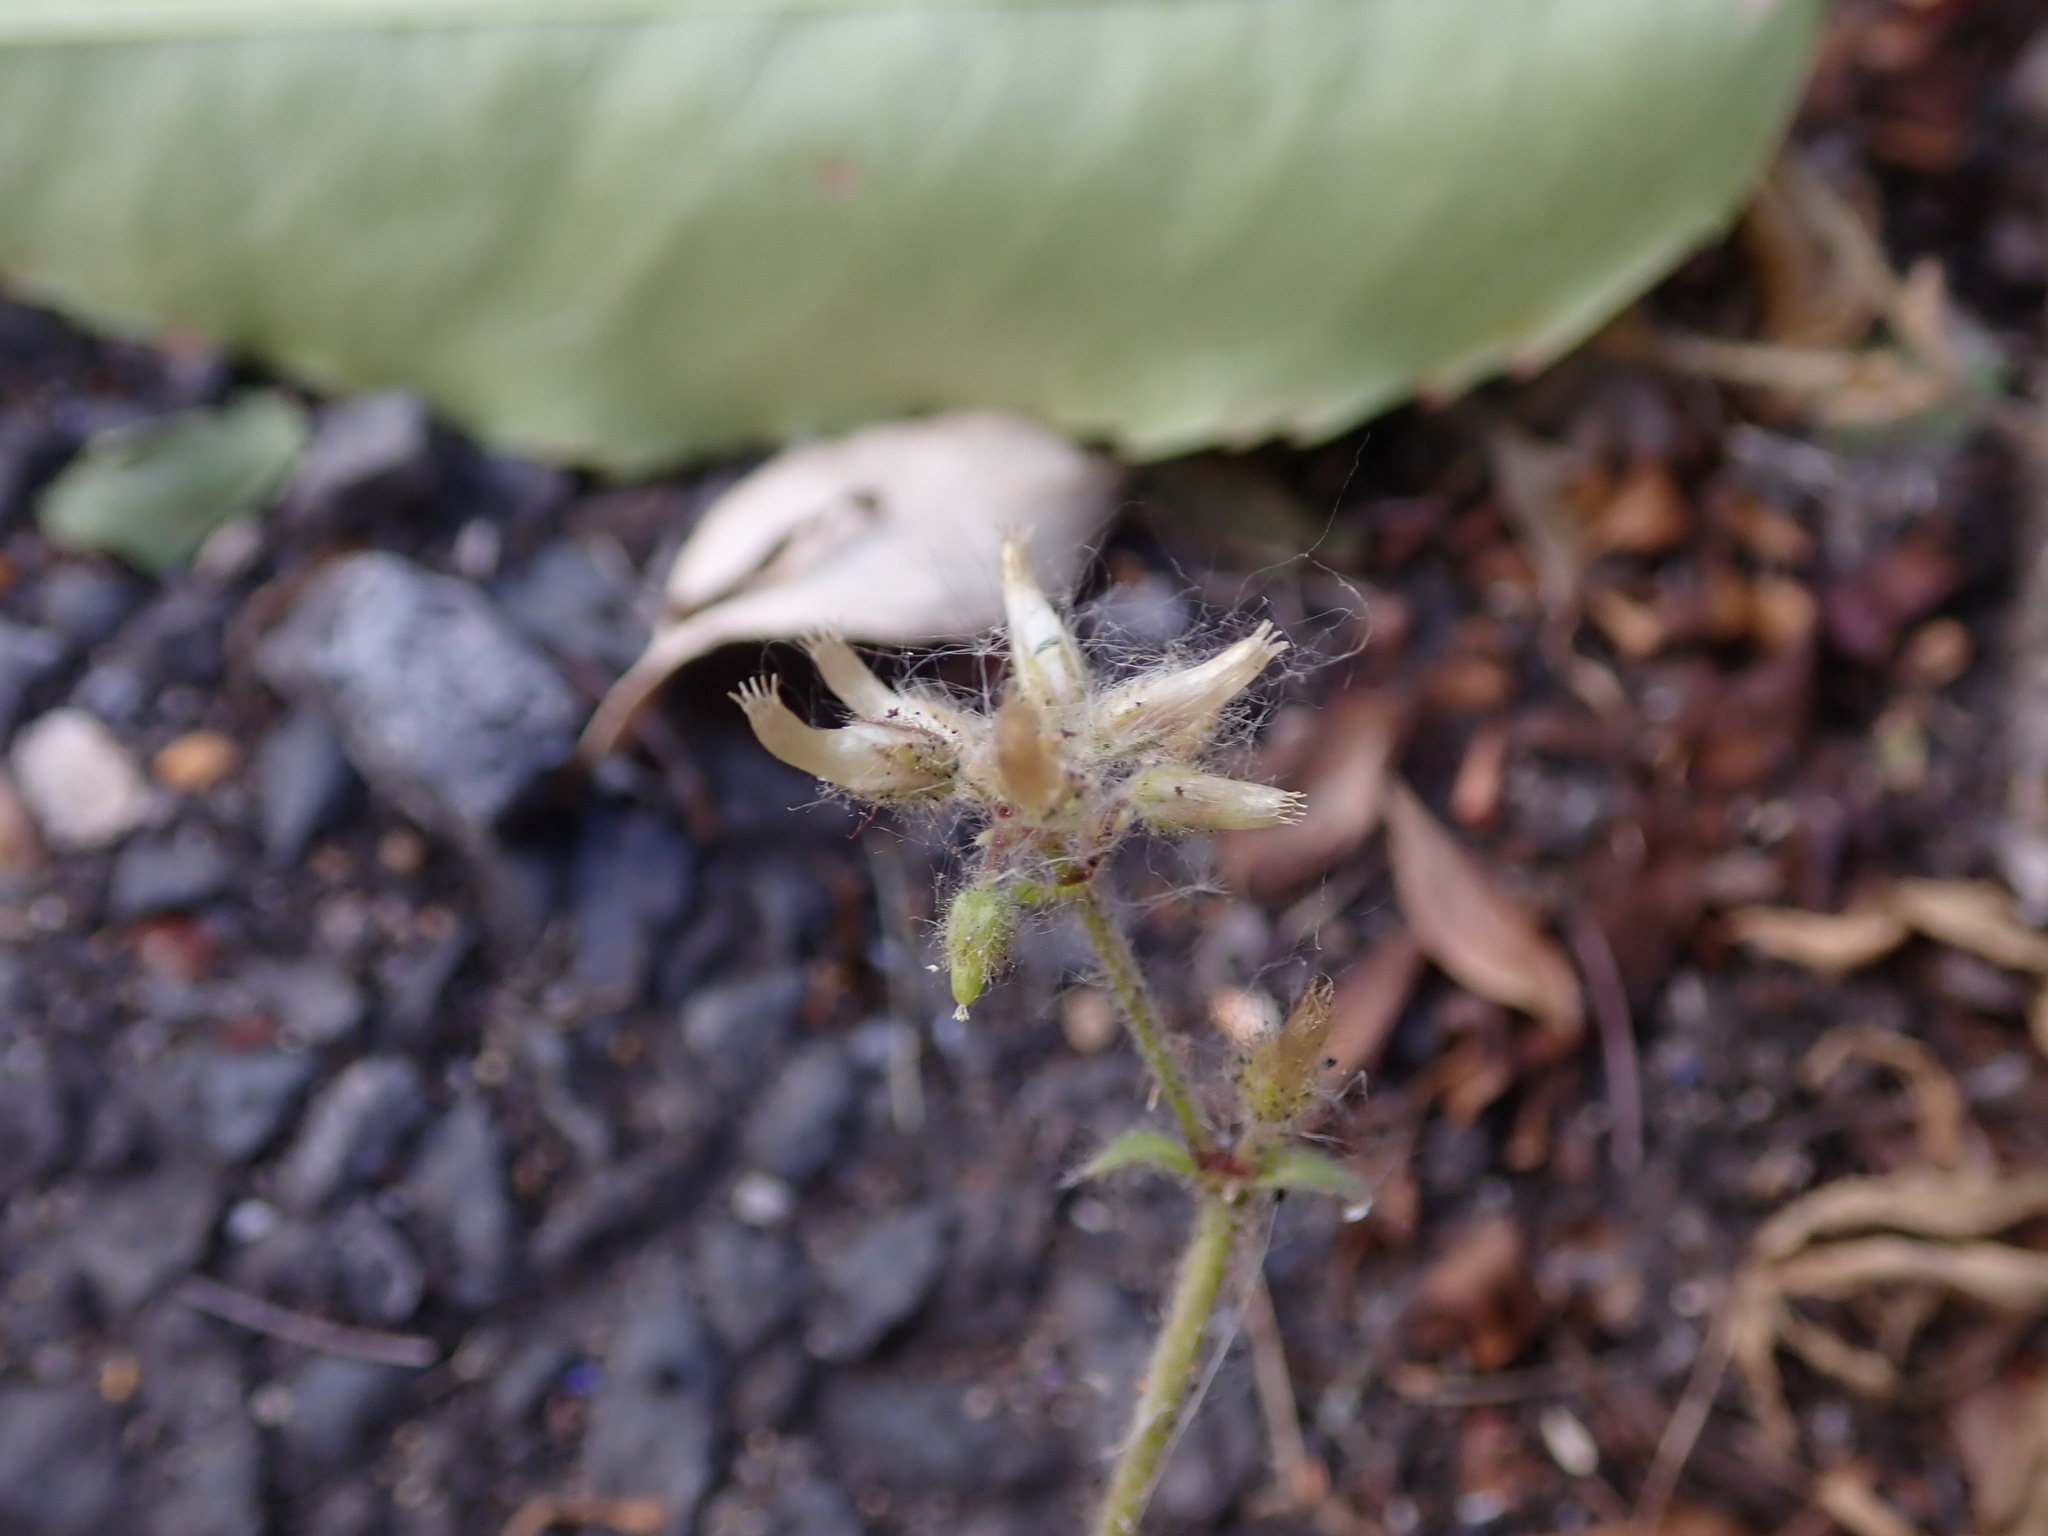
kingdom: Plantae
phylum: Tracheophyta
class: Magnoliopsida
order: Caryophyllales
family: Caryophyllaceae
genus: Cerastium
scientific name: Cerastium glomeratum
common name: Sticky chickweed
